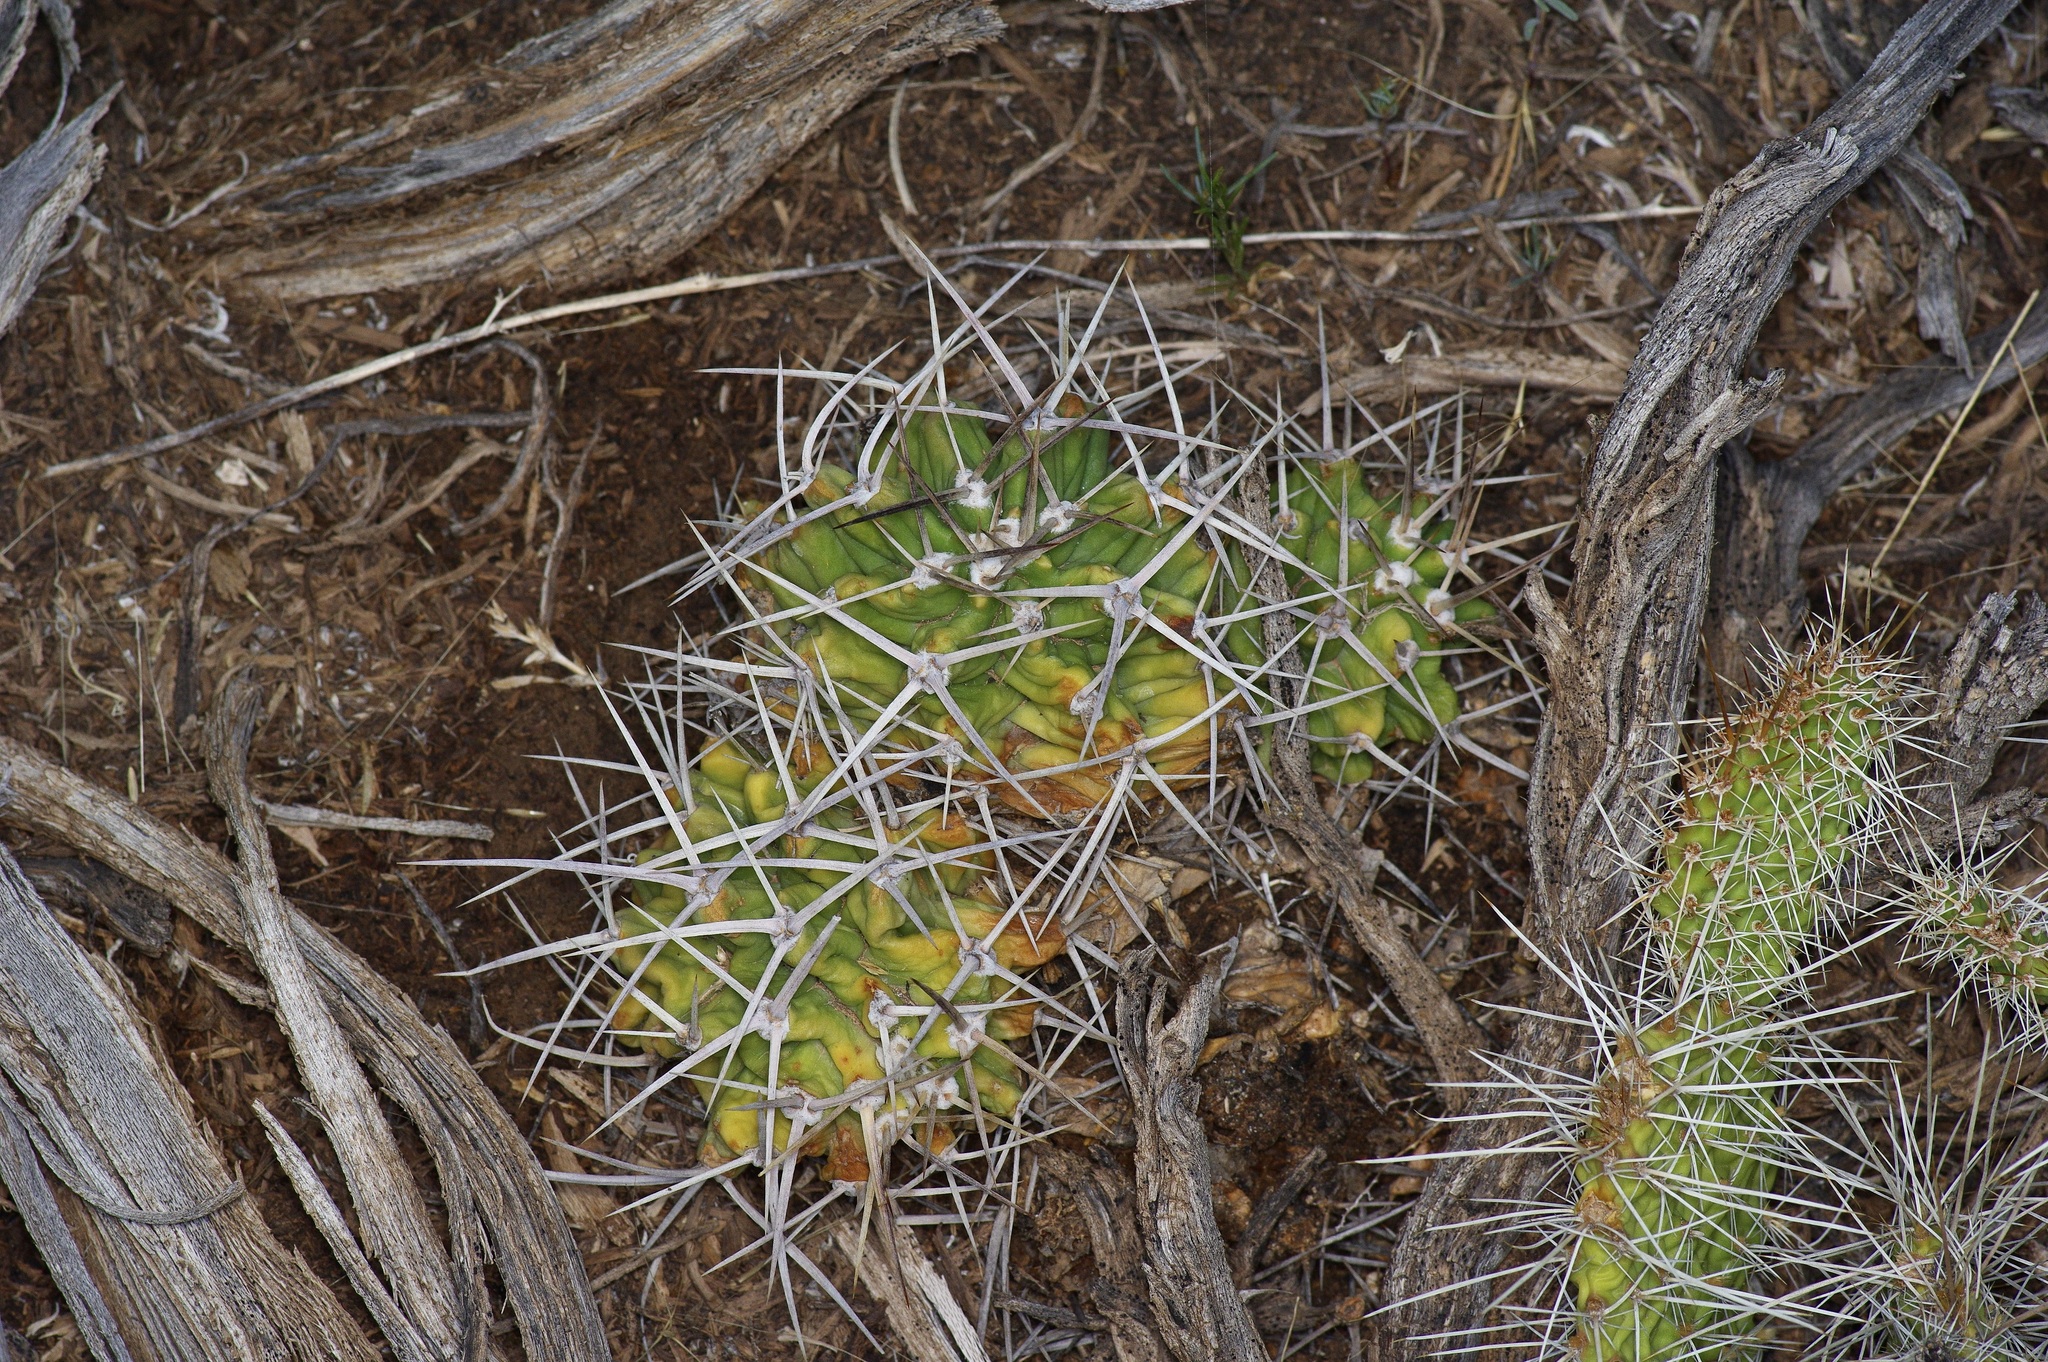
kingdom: Plantae
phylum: Tracheophyta
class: Magnoliopsida
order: Caryophyllales
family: Cactaceae
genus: Echinocereus
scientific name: Echinocereus triglochidiatus
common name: Claretcup hedgehog
